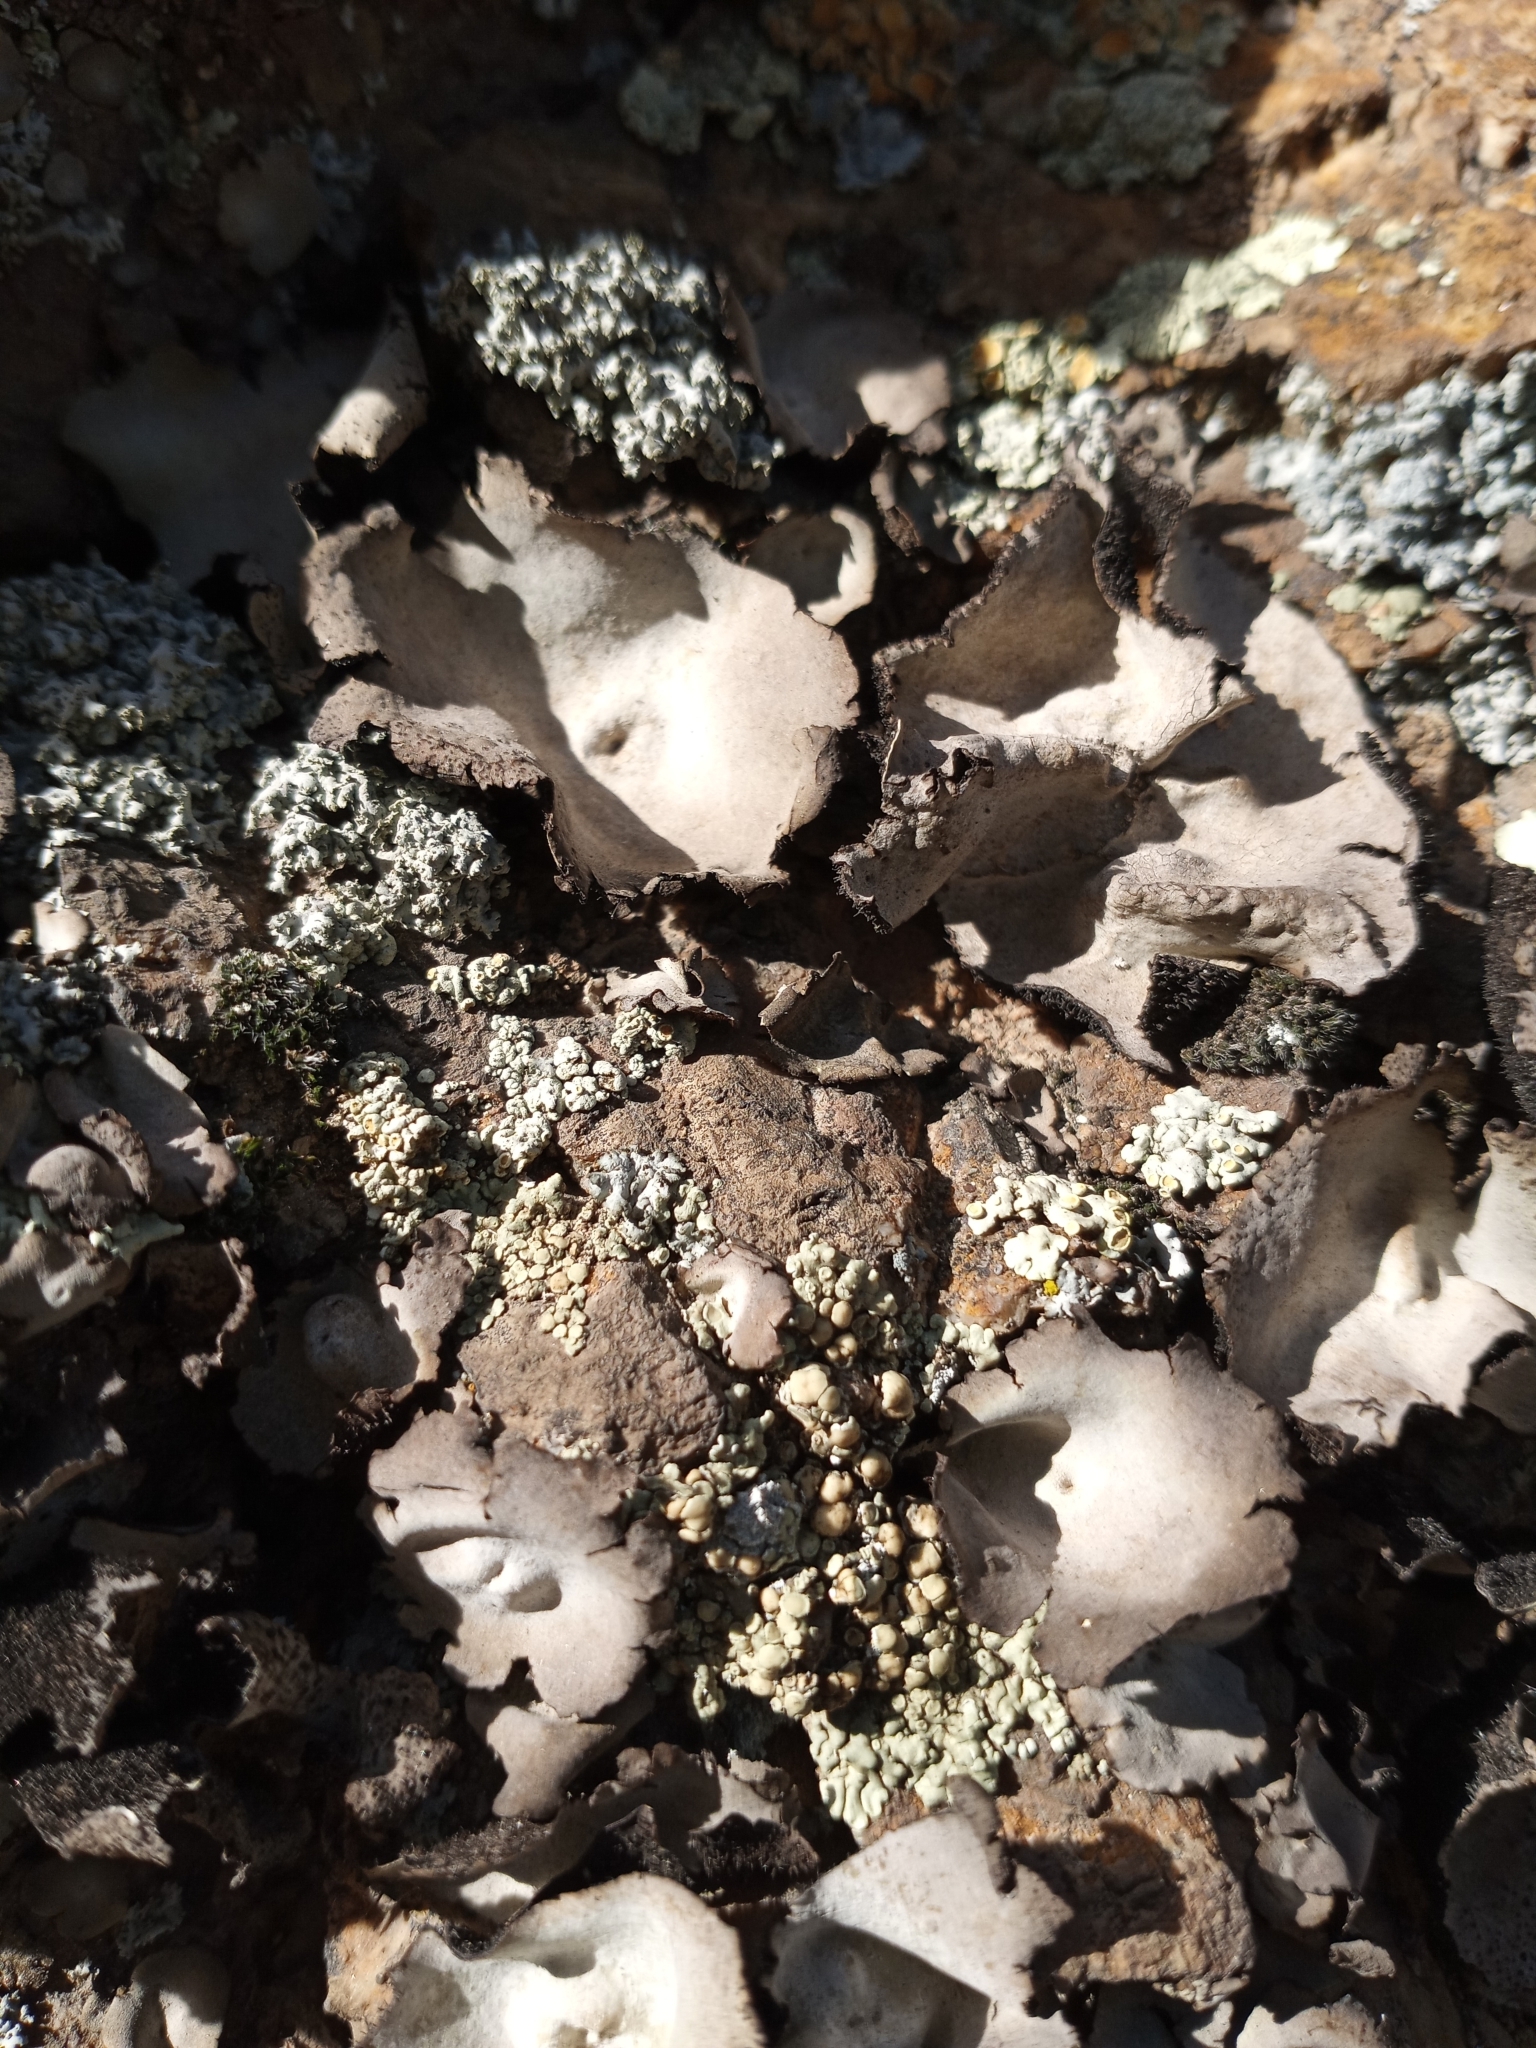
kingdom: Fungi
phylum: Ascomycota
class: Lecanoromycetes
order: Umbilicariales
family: Umbilicariaceae
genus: Umbilicaria
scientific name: Umbilicaria americana
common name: Frosted rock tripe
